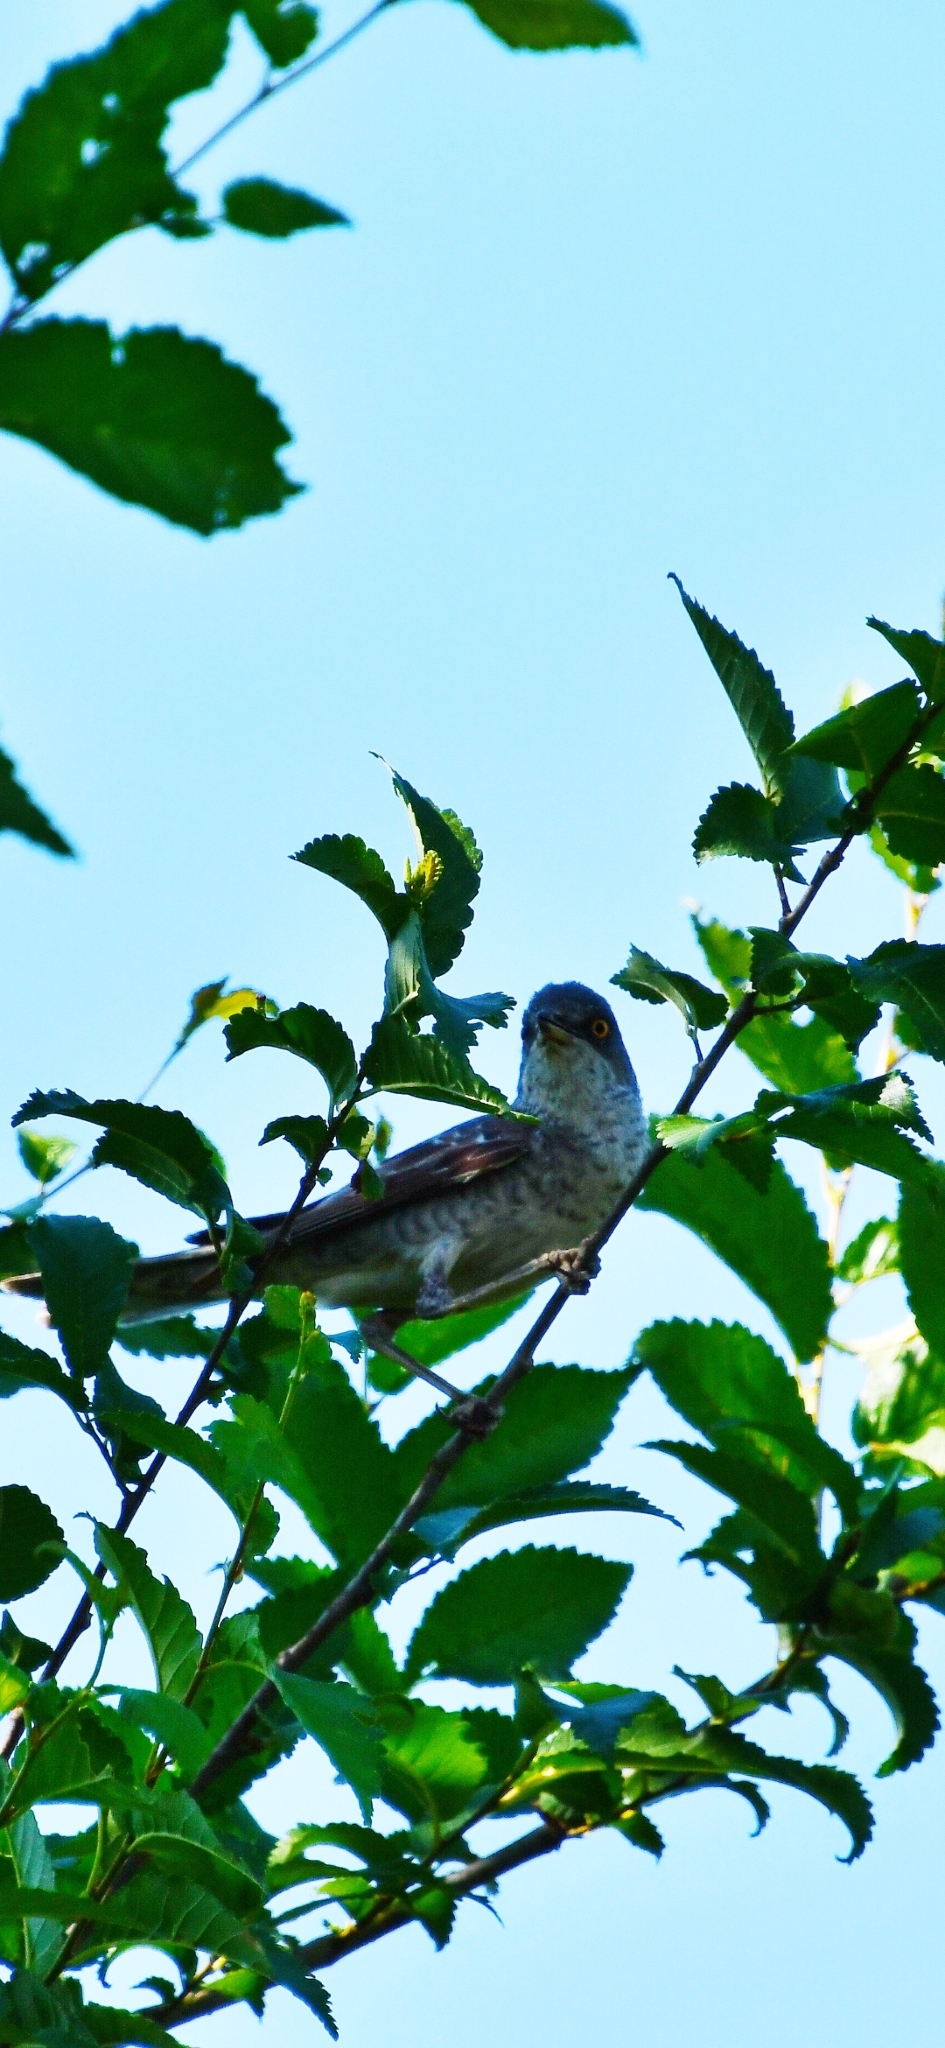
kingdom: Animalia
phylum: Chordata
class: Aves
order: Passeriformes
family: Sylviidae
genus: Sylvia
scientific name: Sylvia nisoria
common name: Barred warbler
